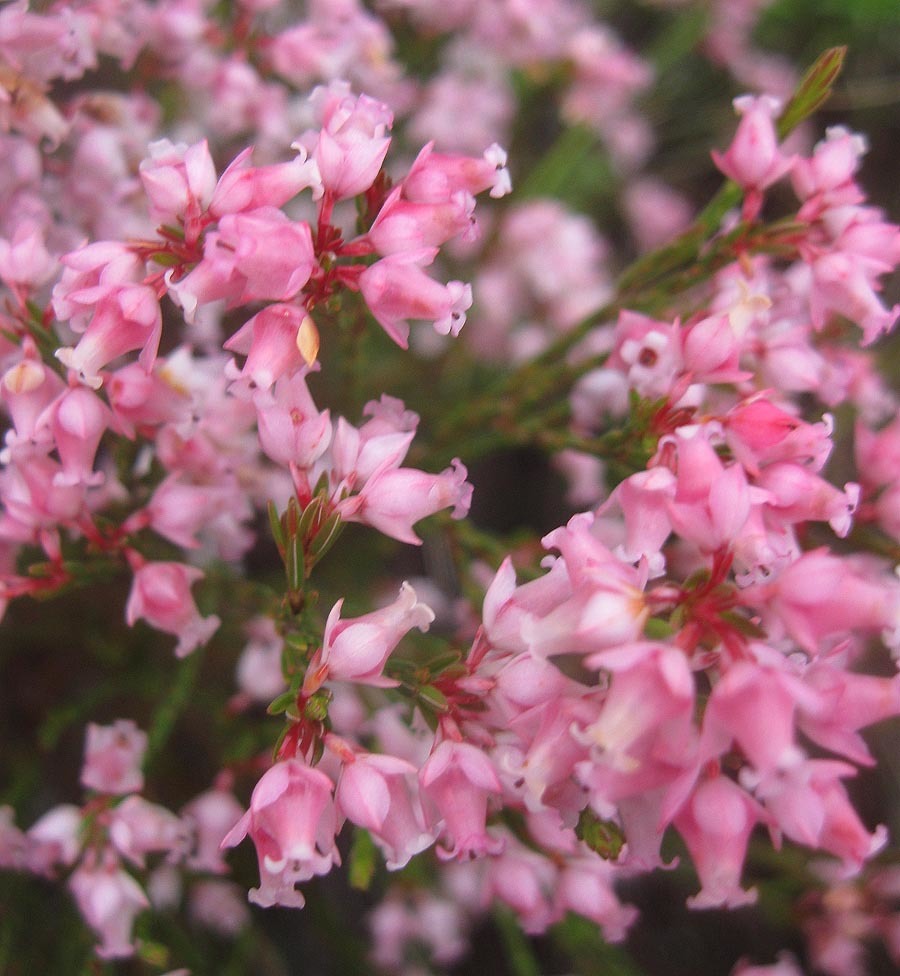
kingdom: Plantae
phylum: Tracheophyta
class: Magnoliopsida
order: Ericales
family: Ericaceae
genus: Erica
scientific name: Erica tenuifolia
